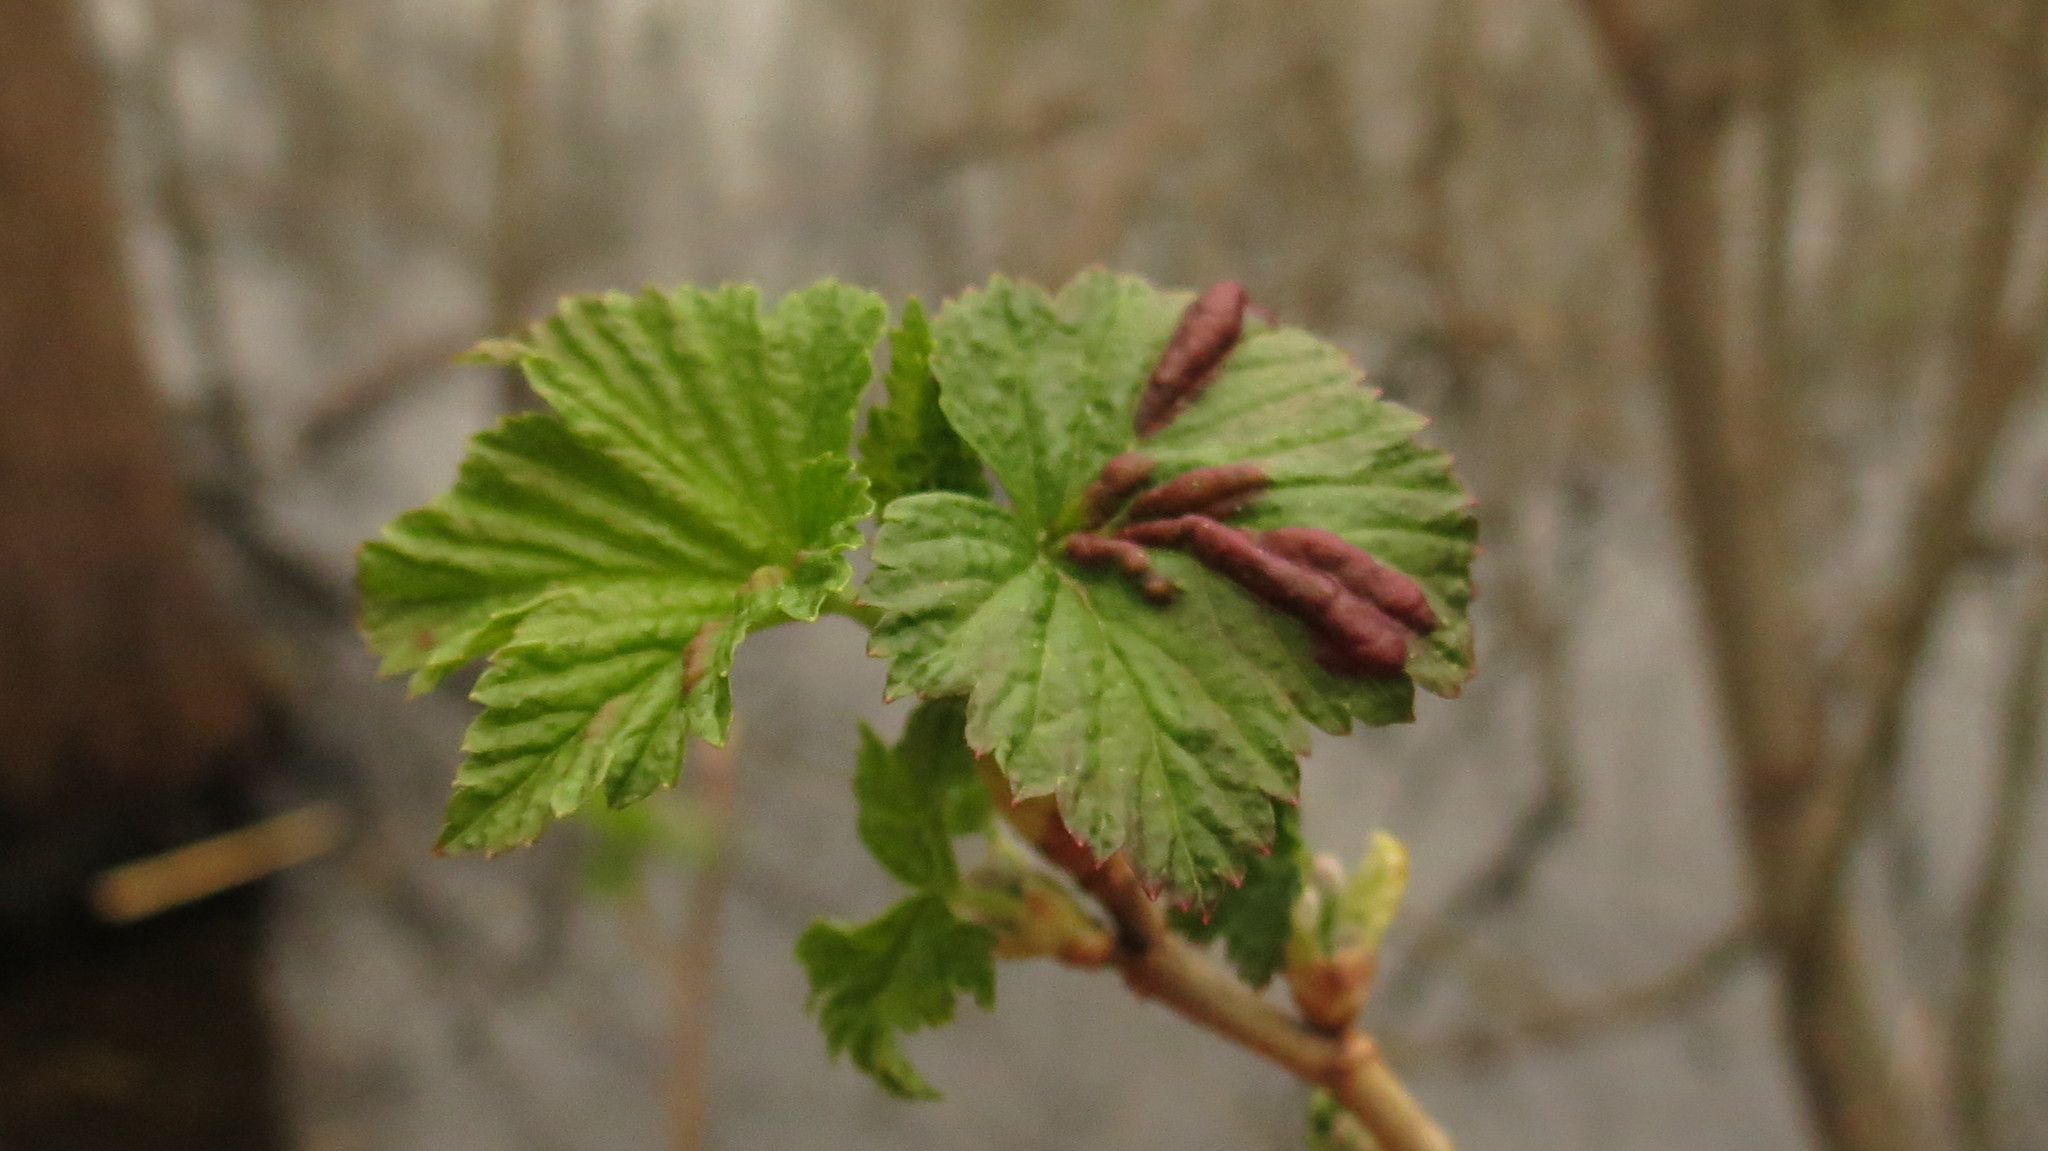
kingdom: Animalia
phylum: Arthropoda
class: Insecta
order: Hemiptera
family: Aphididae
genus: Cryptomyzus
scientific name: Cryptomyzus ribis
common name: Currant aphid
